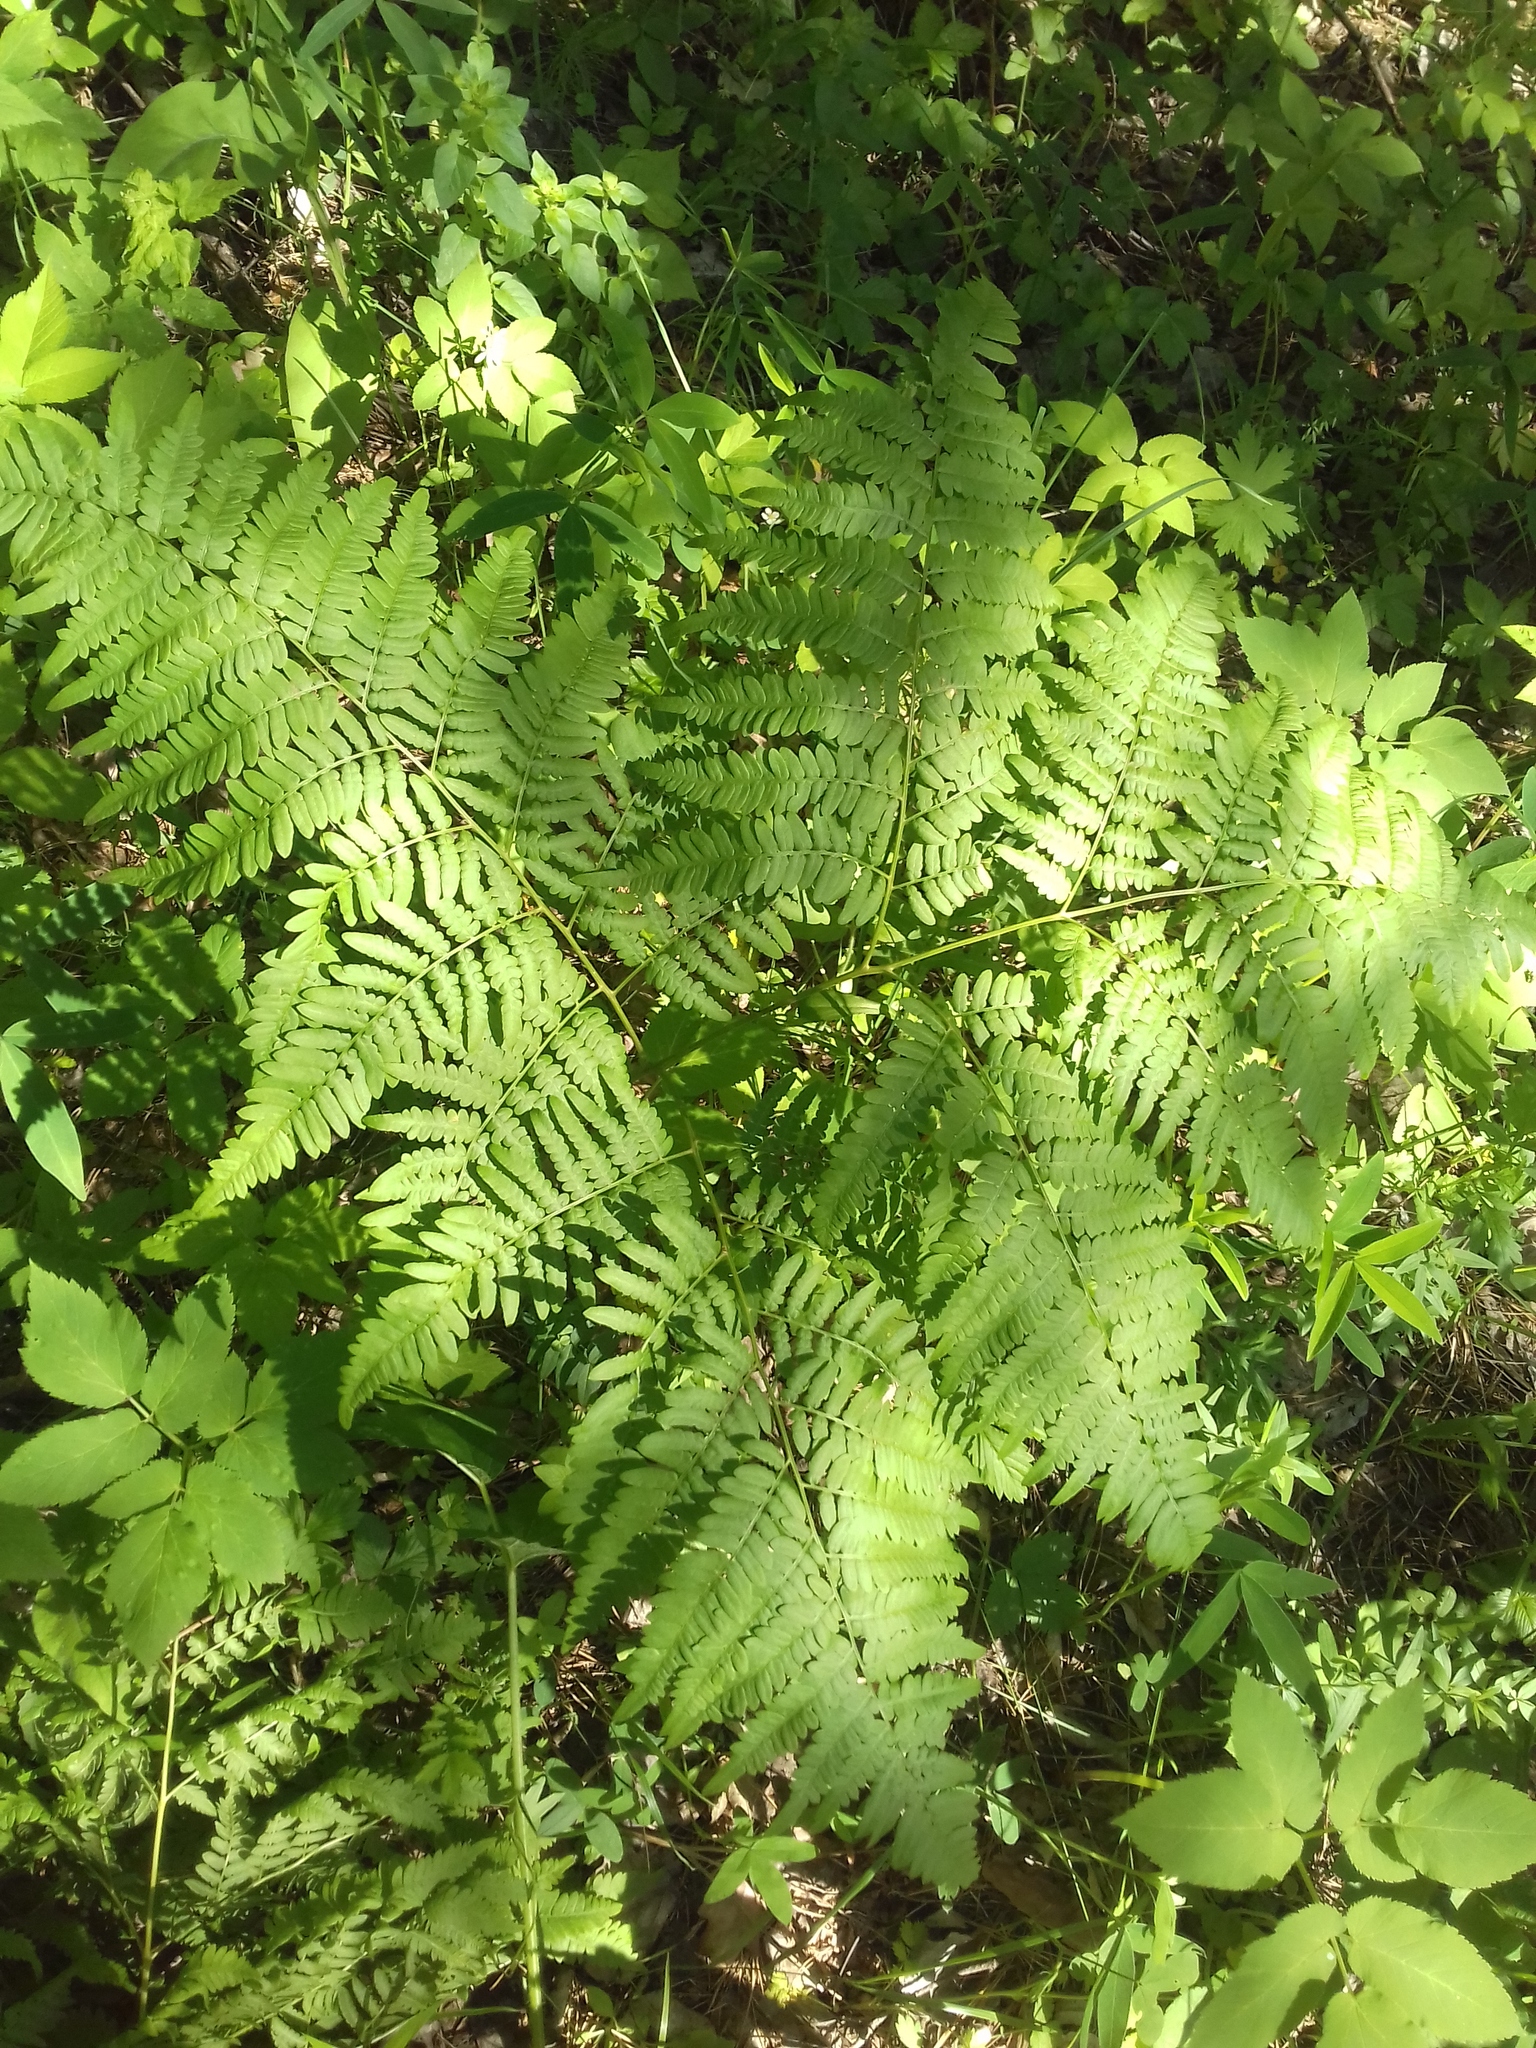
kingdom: Plantae
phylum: Tracheophyta
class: Polypodiopsida
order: Polypodiales
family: Dennstaedtiaceae
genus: Pteridium
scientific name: Pteridium aquilinum
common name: Bracken
